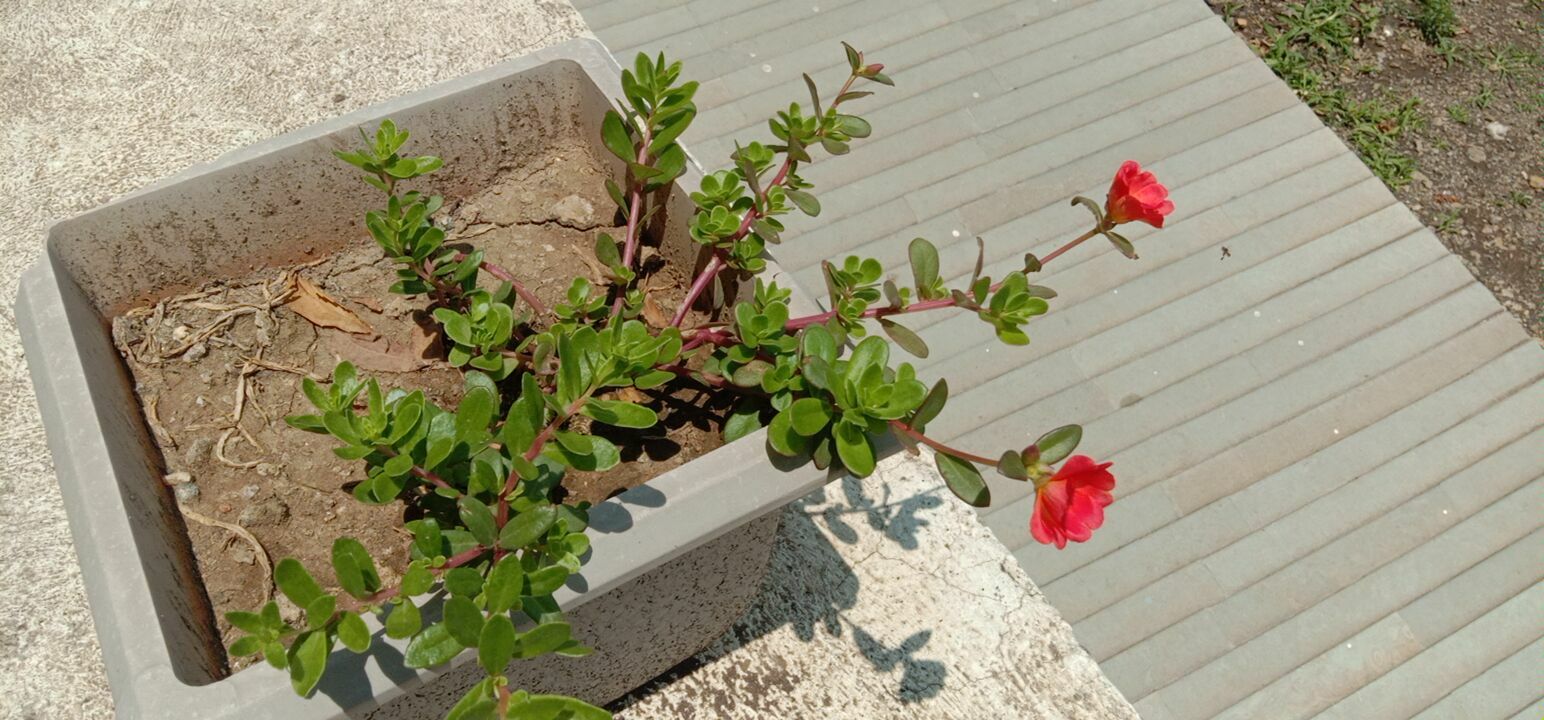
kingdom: Plantae
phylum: Tracheophyta
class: Magnoliopsida
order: Caryophyllales
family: Portulacaceae
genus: Portulaca
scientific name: Portulaca umbraticola
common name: Wingpod purslane
